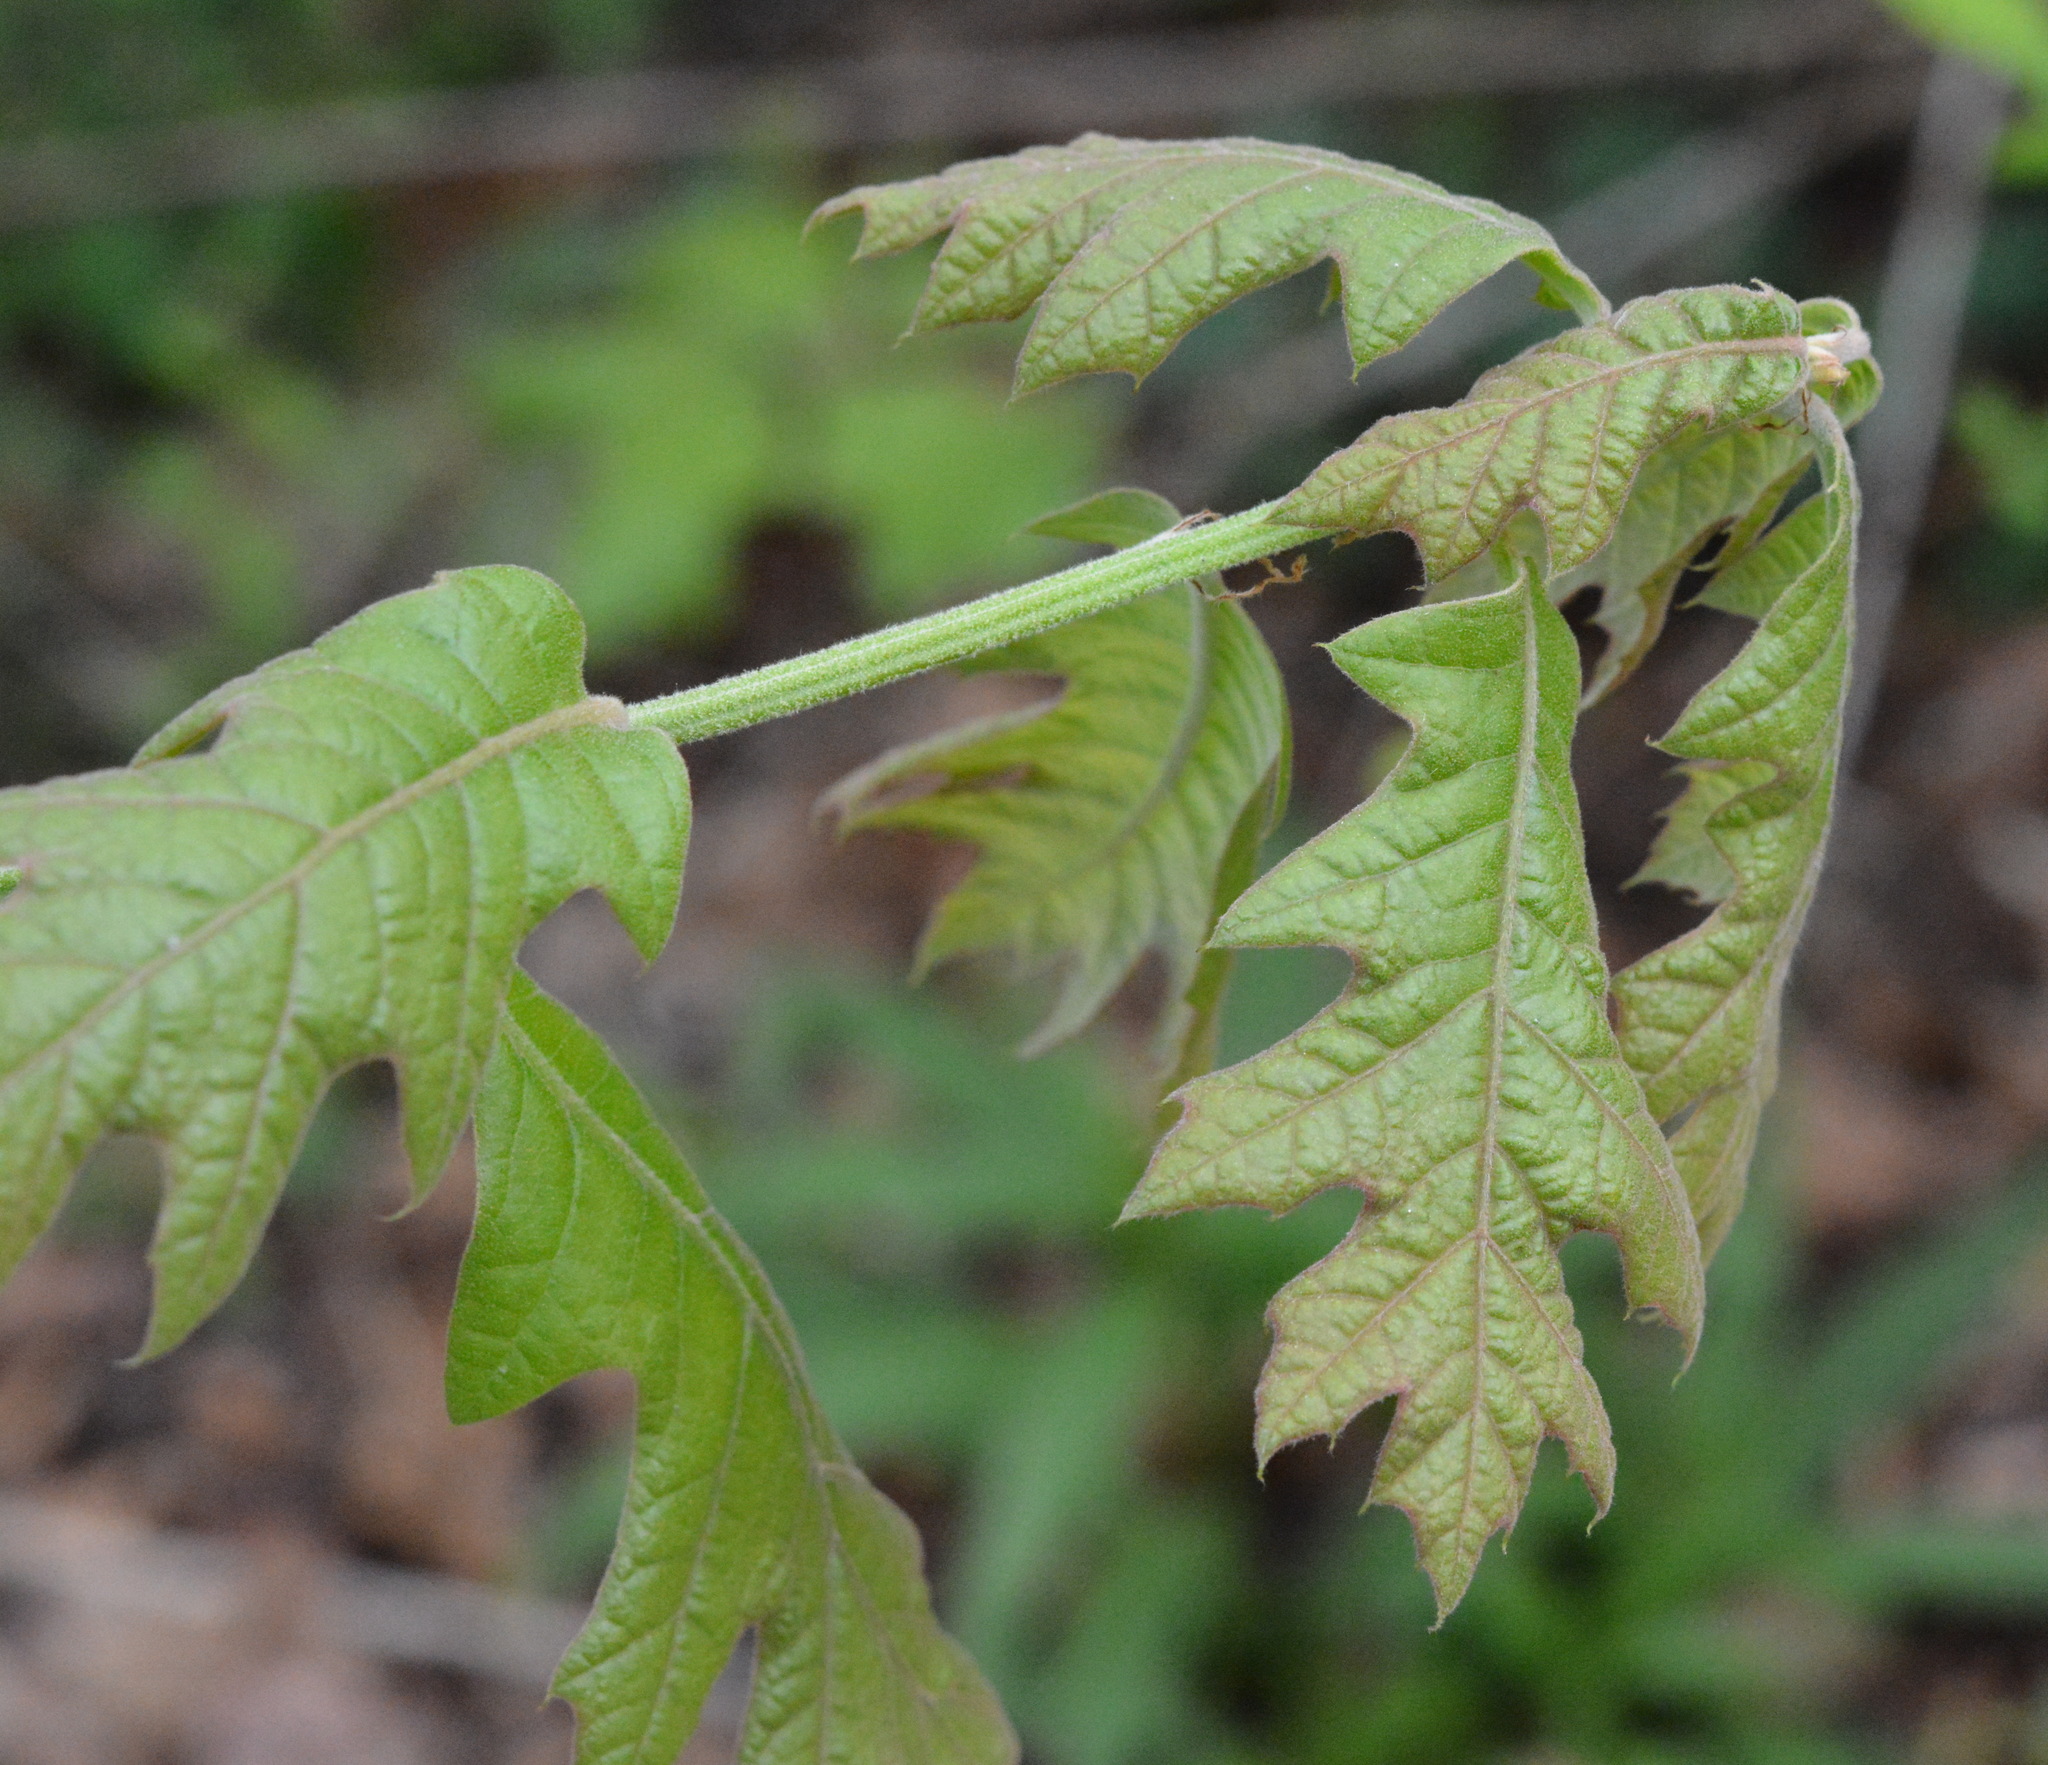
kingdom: Animalia
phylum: Arthropoda
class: Insecta
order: Hymenoptera
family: Cynipidae
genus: Dryocosmus
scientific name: Dryocosmus quercuspalustris
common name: Succulent oak gall wasp
